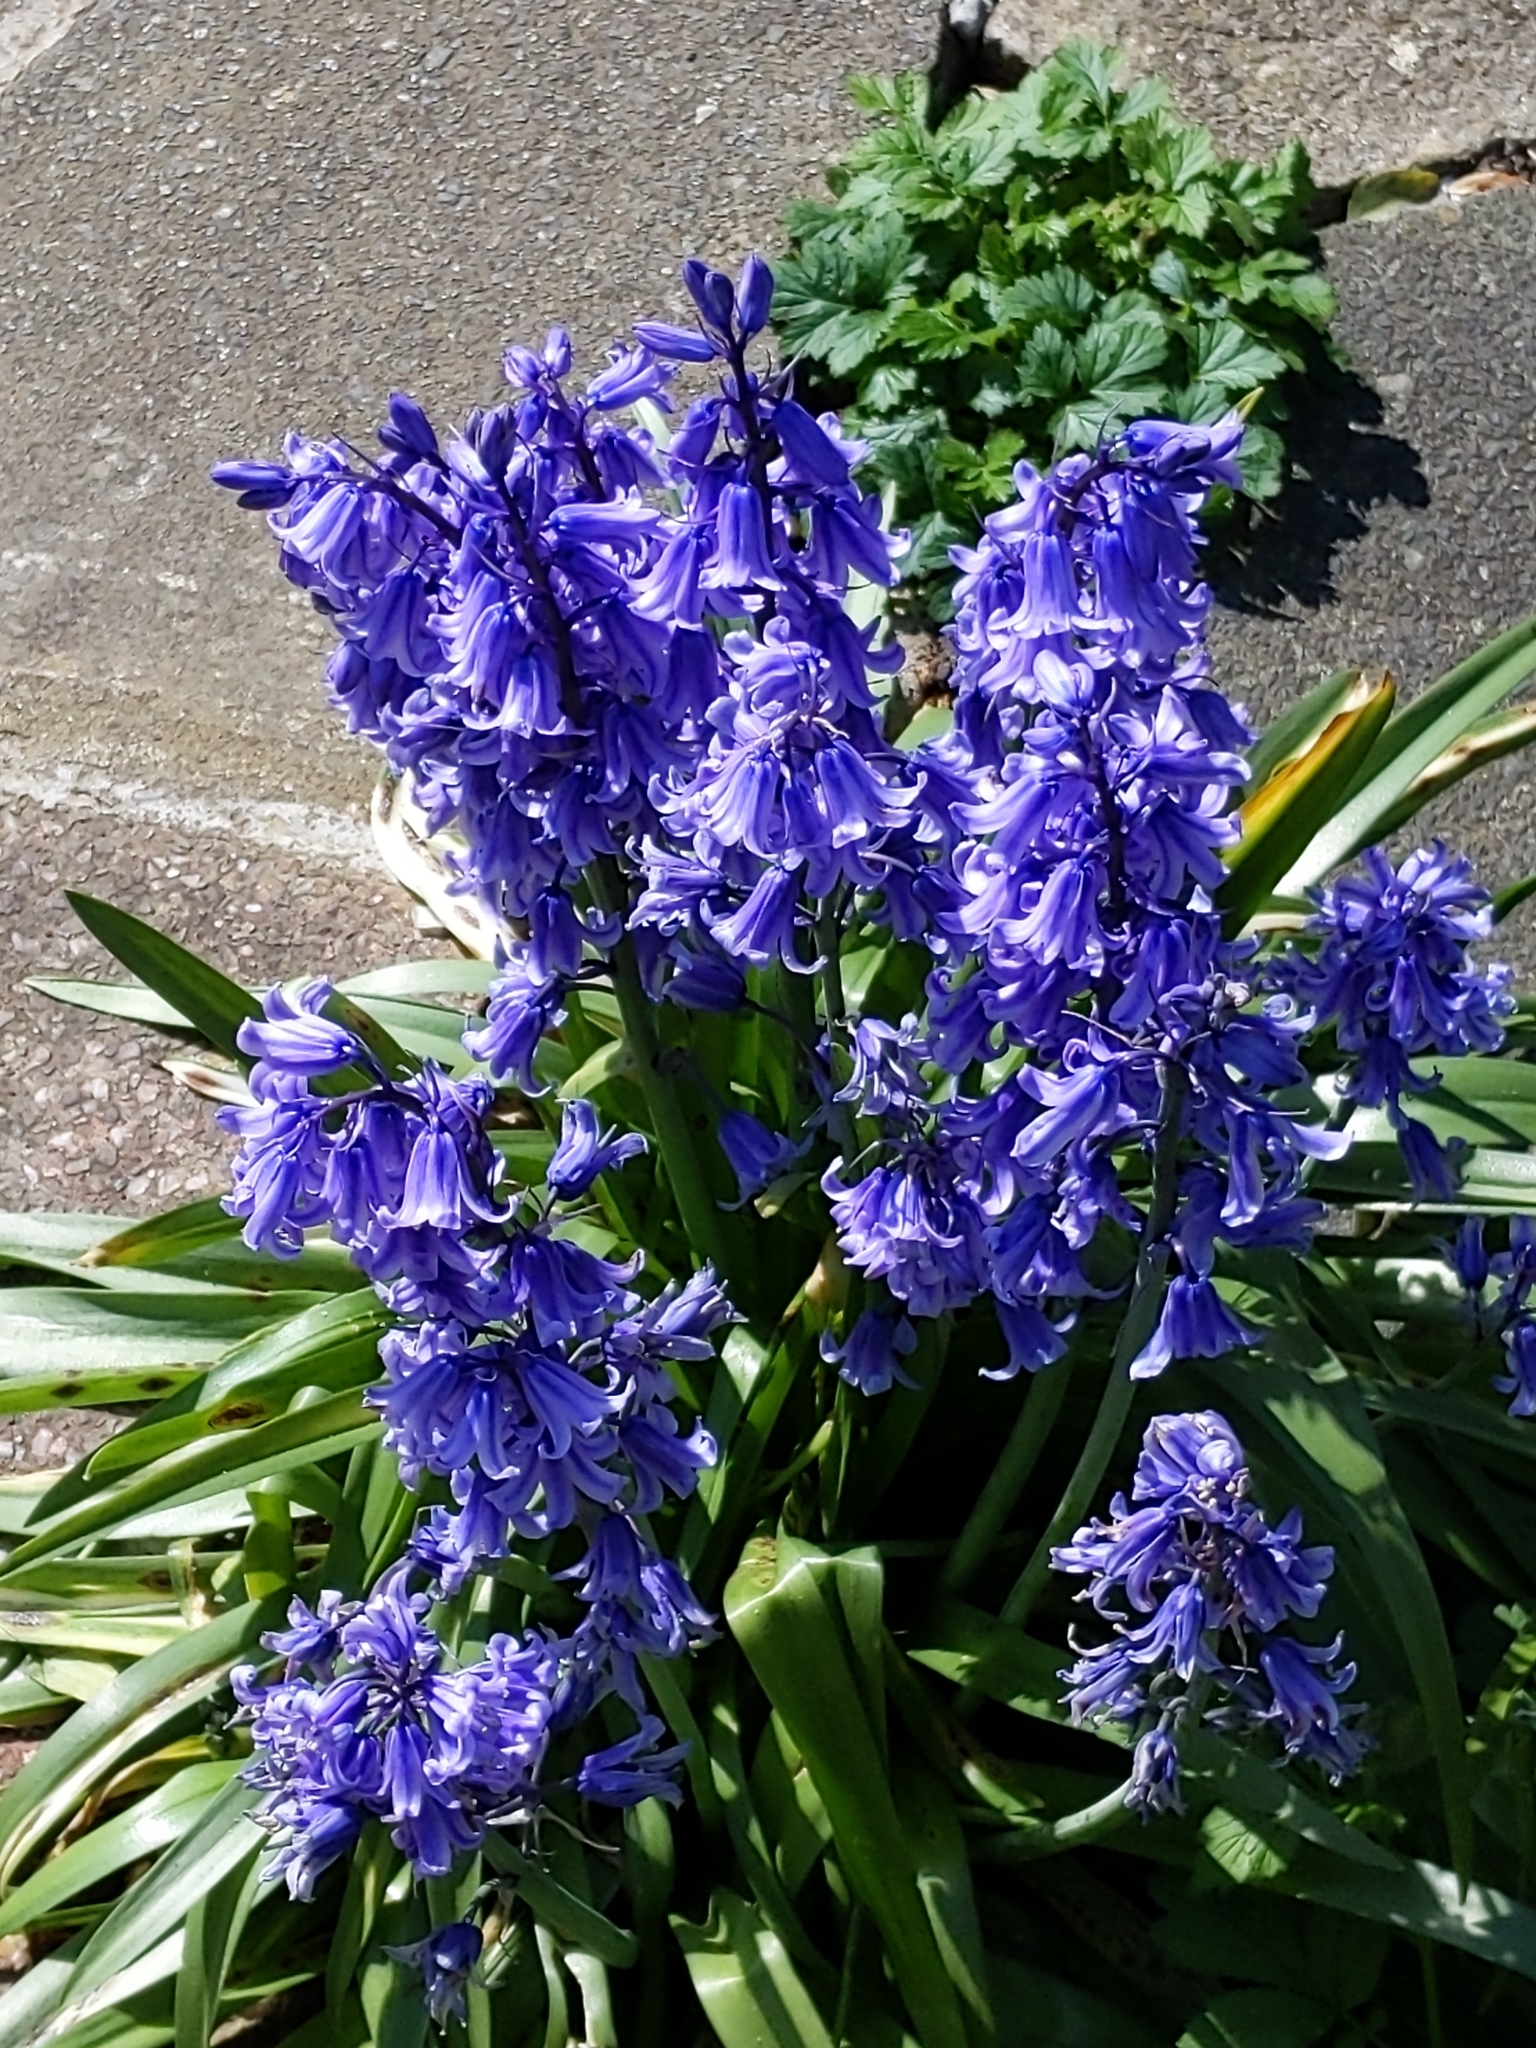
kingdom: Plantae
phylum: Tracheophyta
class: Liliopsida
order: Asparagales
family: Asparagaceae
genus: Hyacinthoides
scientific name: Hyacinthoides massartiana
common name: Hyacinthoides
